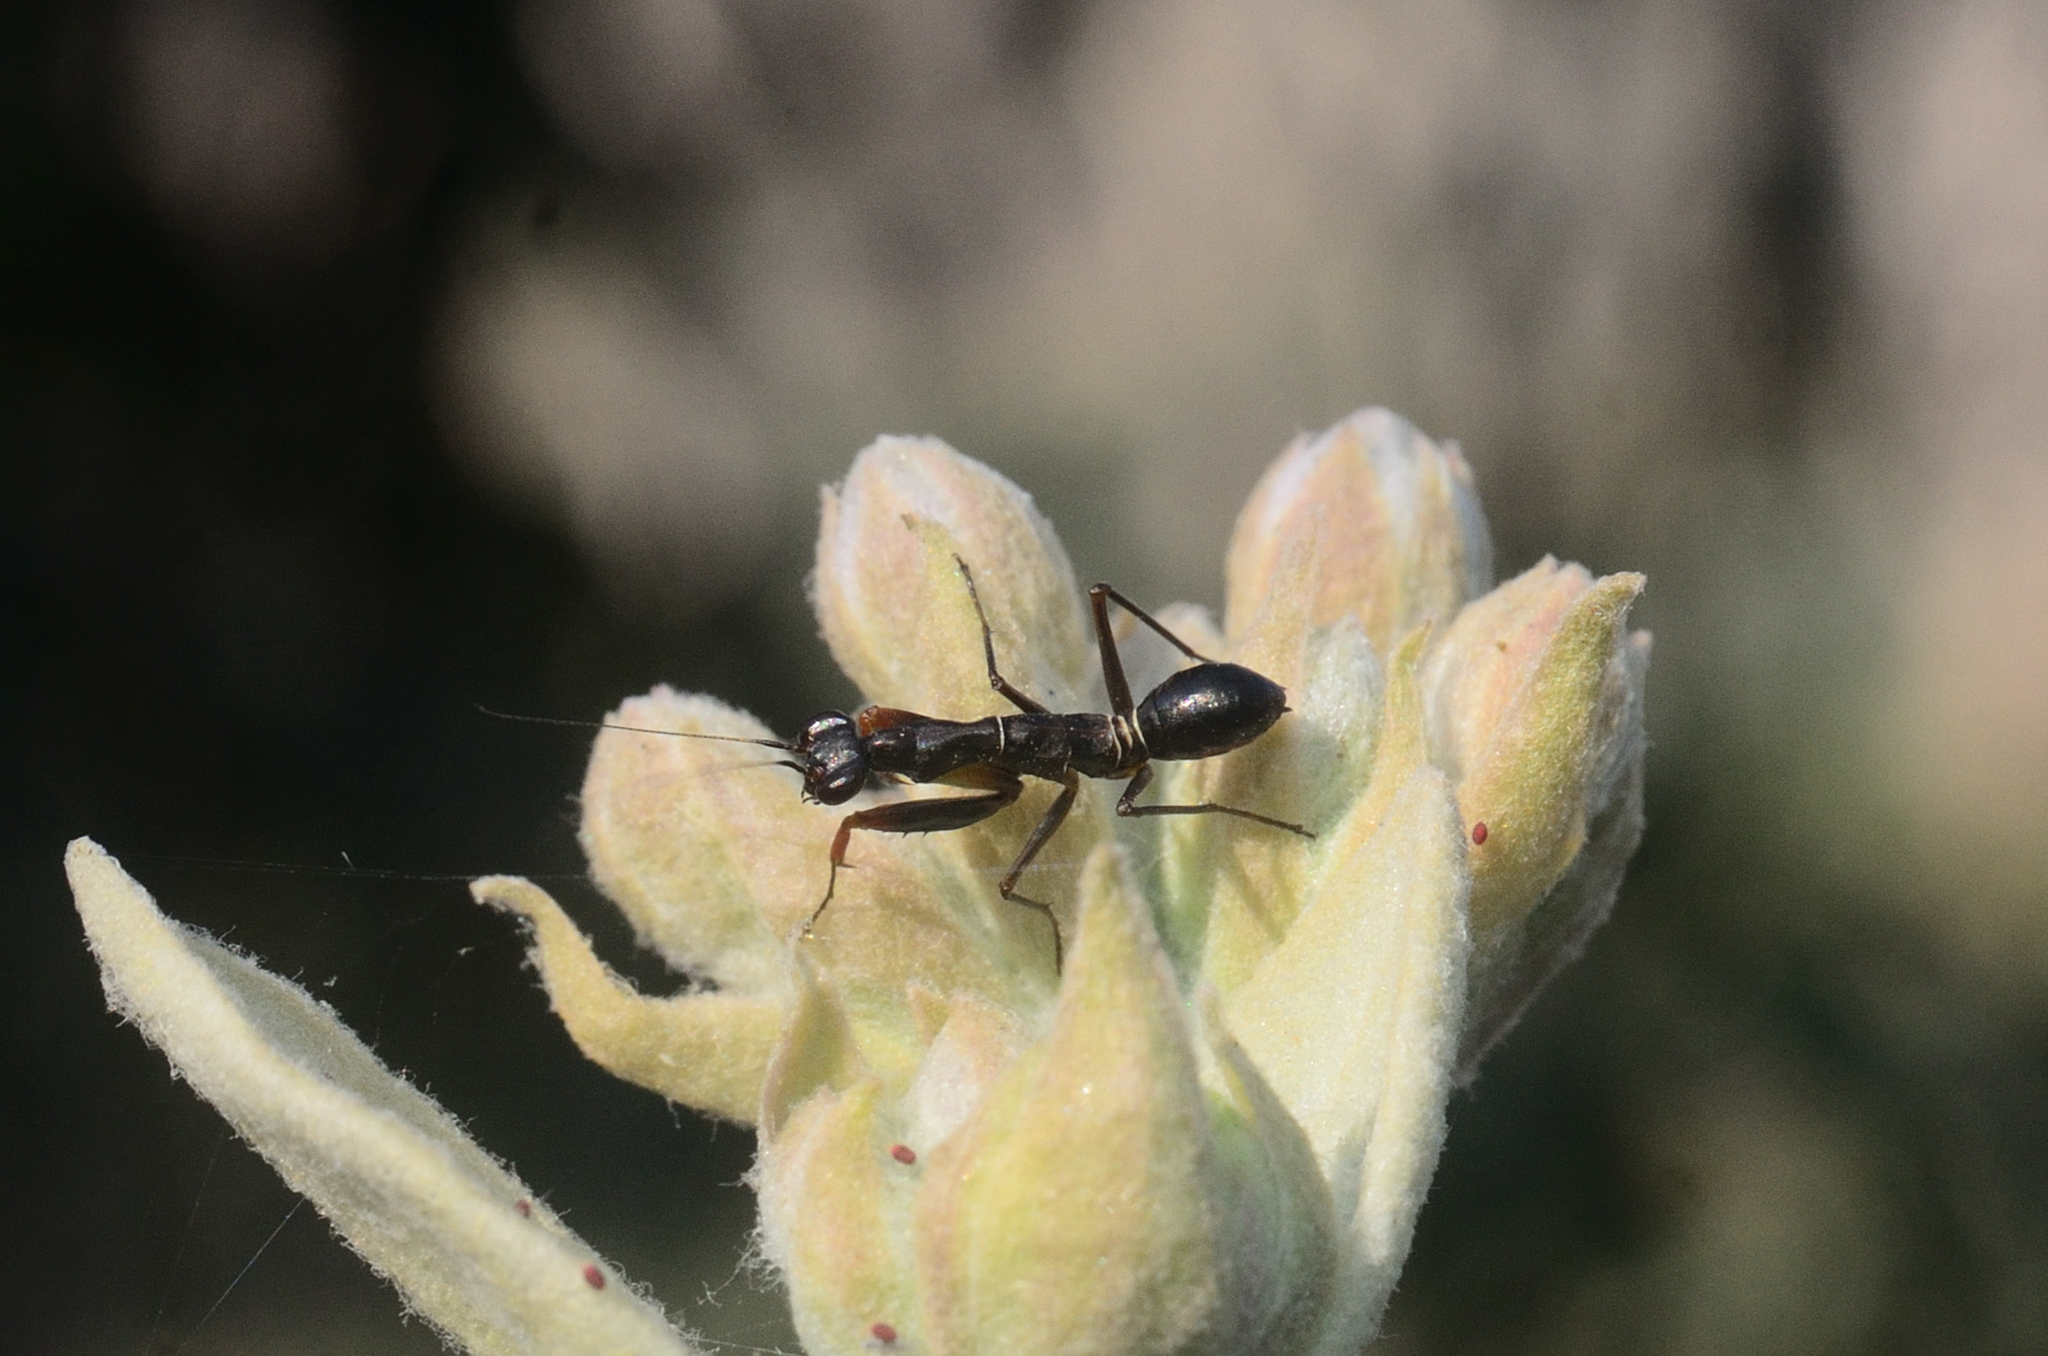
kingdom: Animalia
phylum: Arthropoda
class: Insecta
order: Mantodea
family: Hymenopodidae
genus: Odontomantis
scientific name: Odontomantis planiceps
